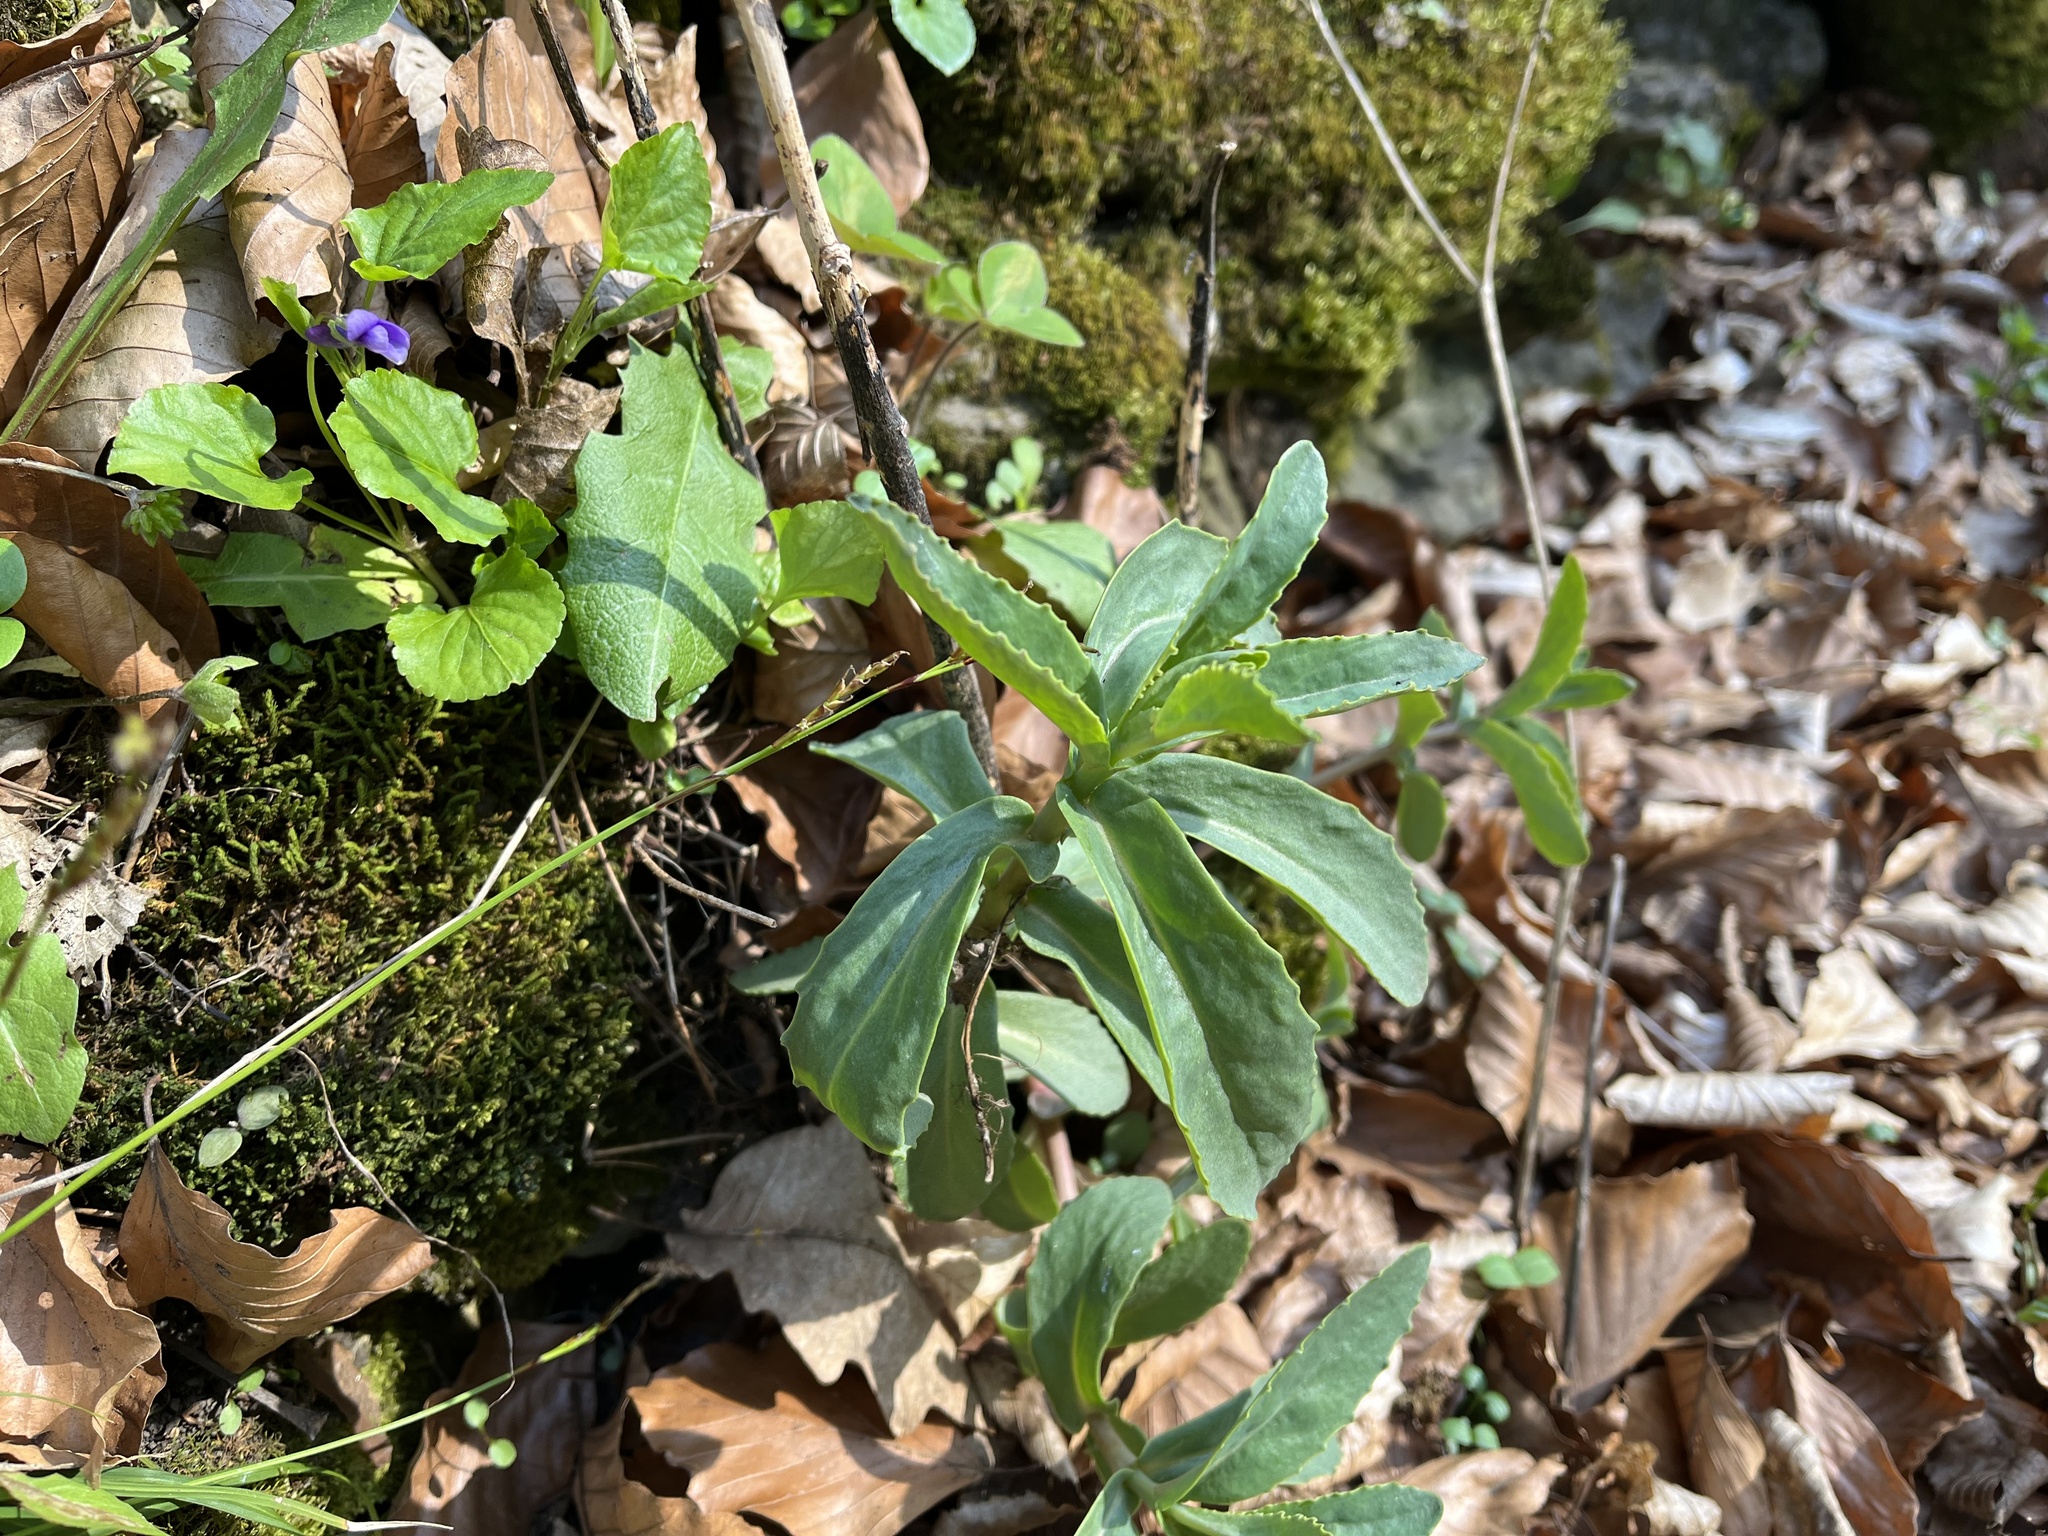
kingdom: Plantae
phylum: Tracheophyta
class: Magnoliopsida
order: Saxifragales
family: Crassulaceae
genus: Hylotelephium
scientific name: Hylotelephium maximum
